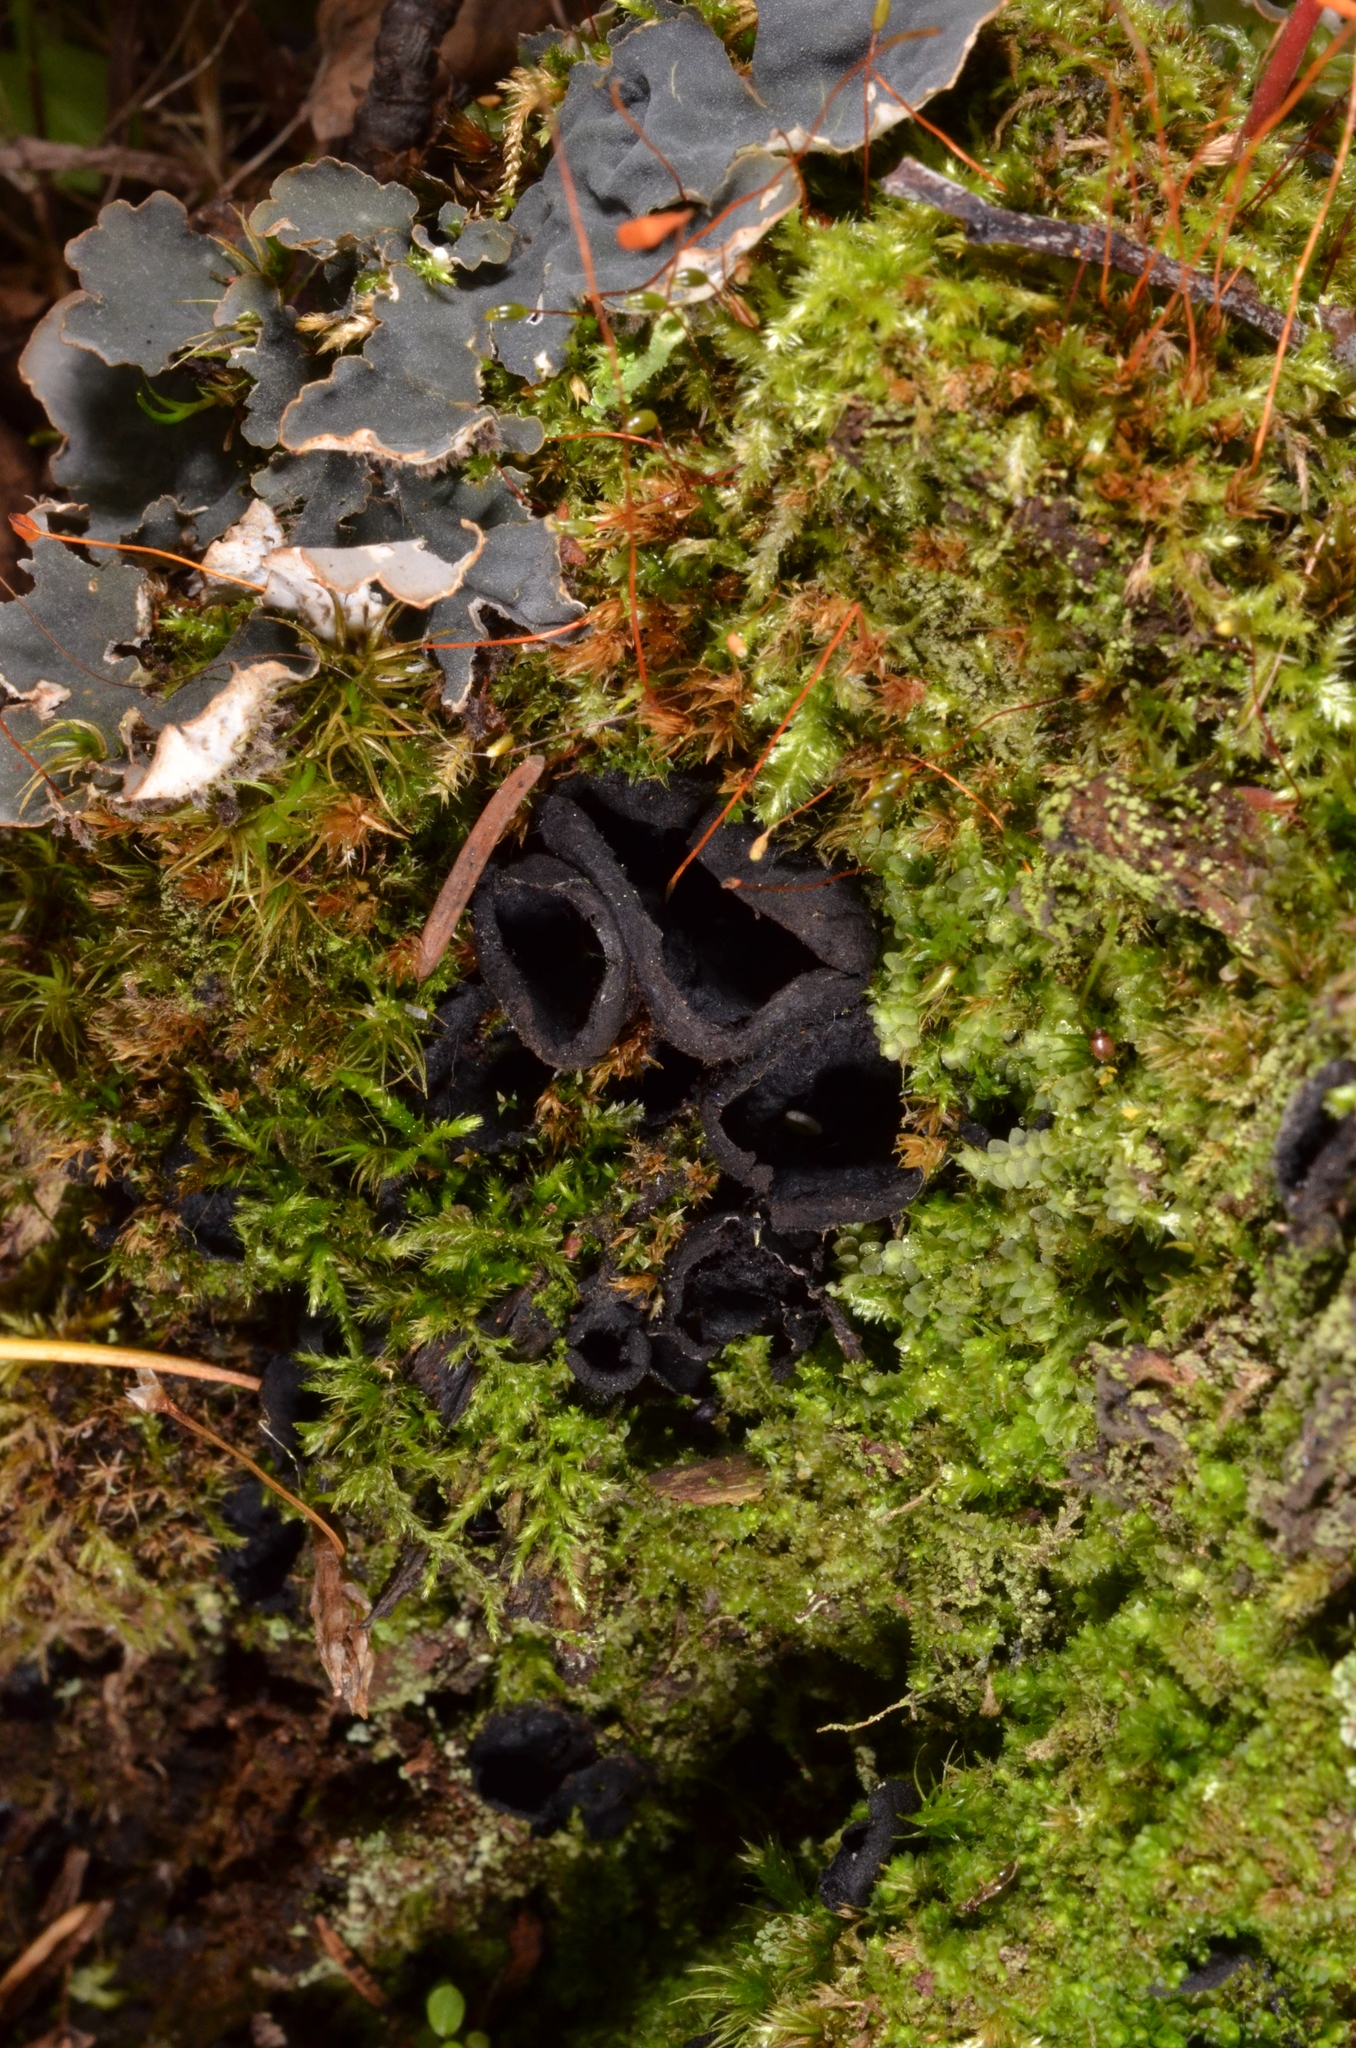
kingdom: Fungi
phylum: Ascomycota
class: Pezizomycetes
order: Pezizales
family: Sarcosomataceae
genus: Pseudoplectania
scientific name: Pseudoplectania nigrella
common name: Ebony cup
